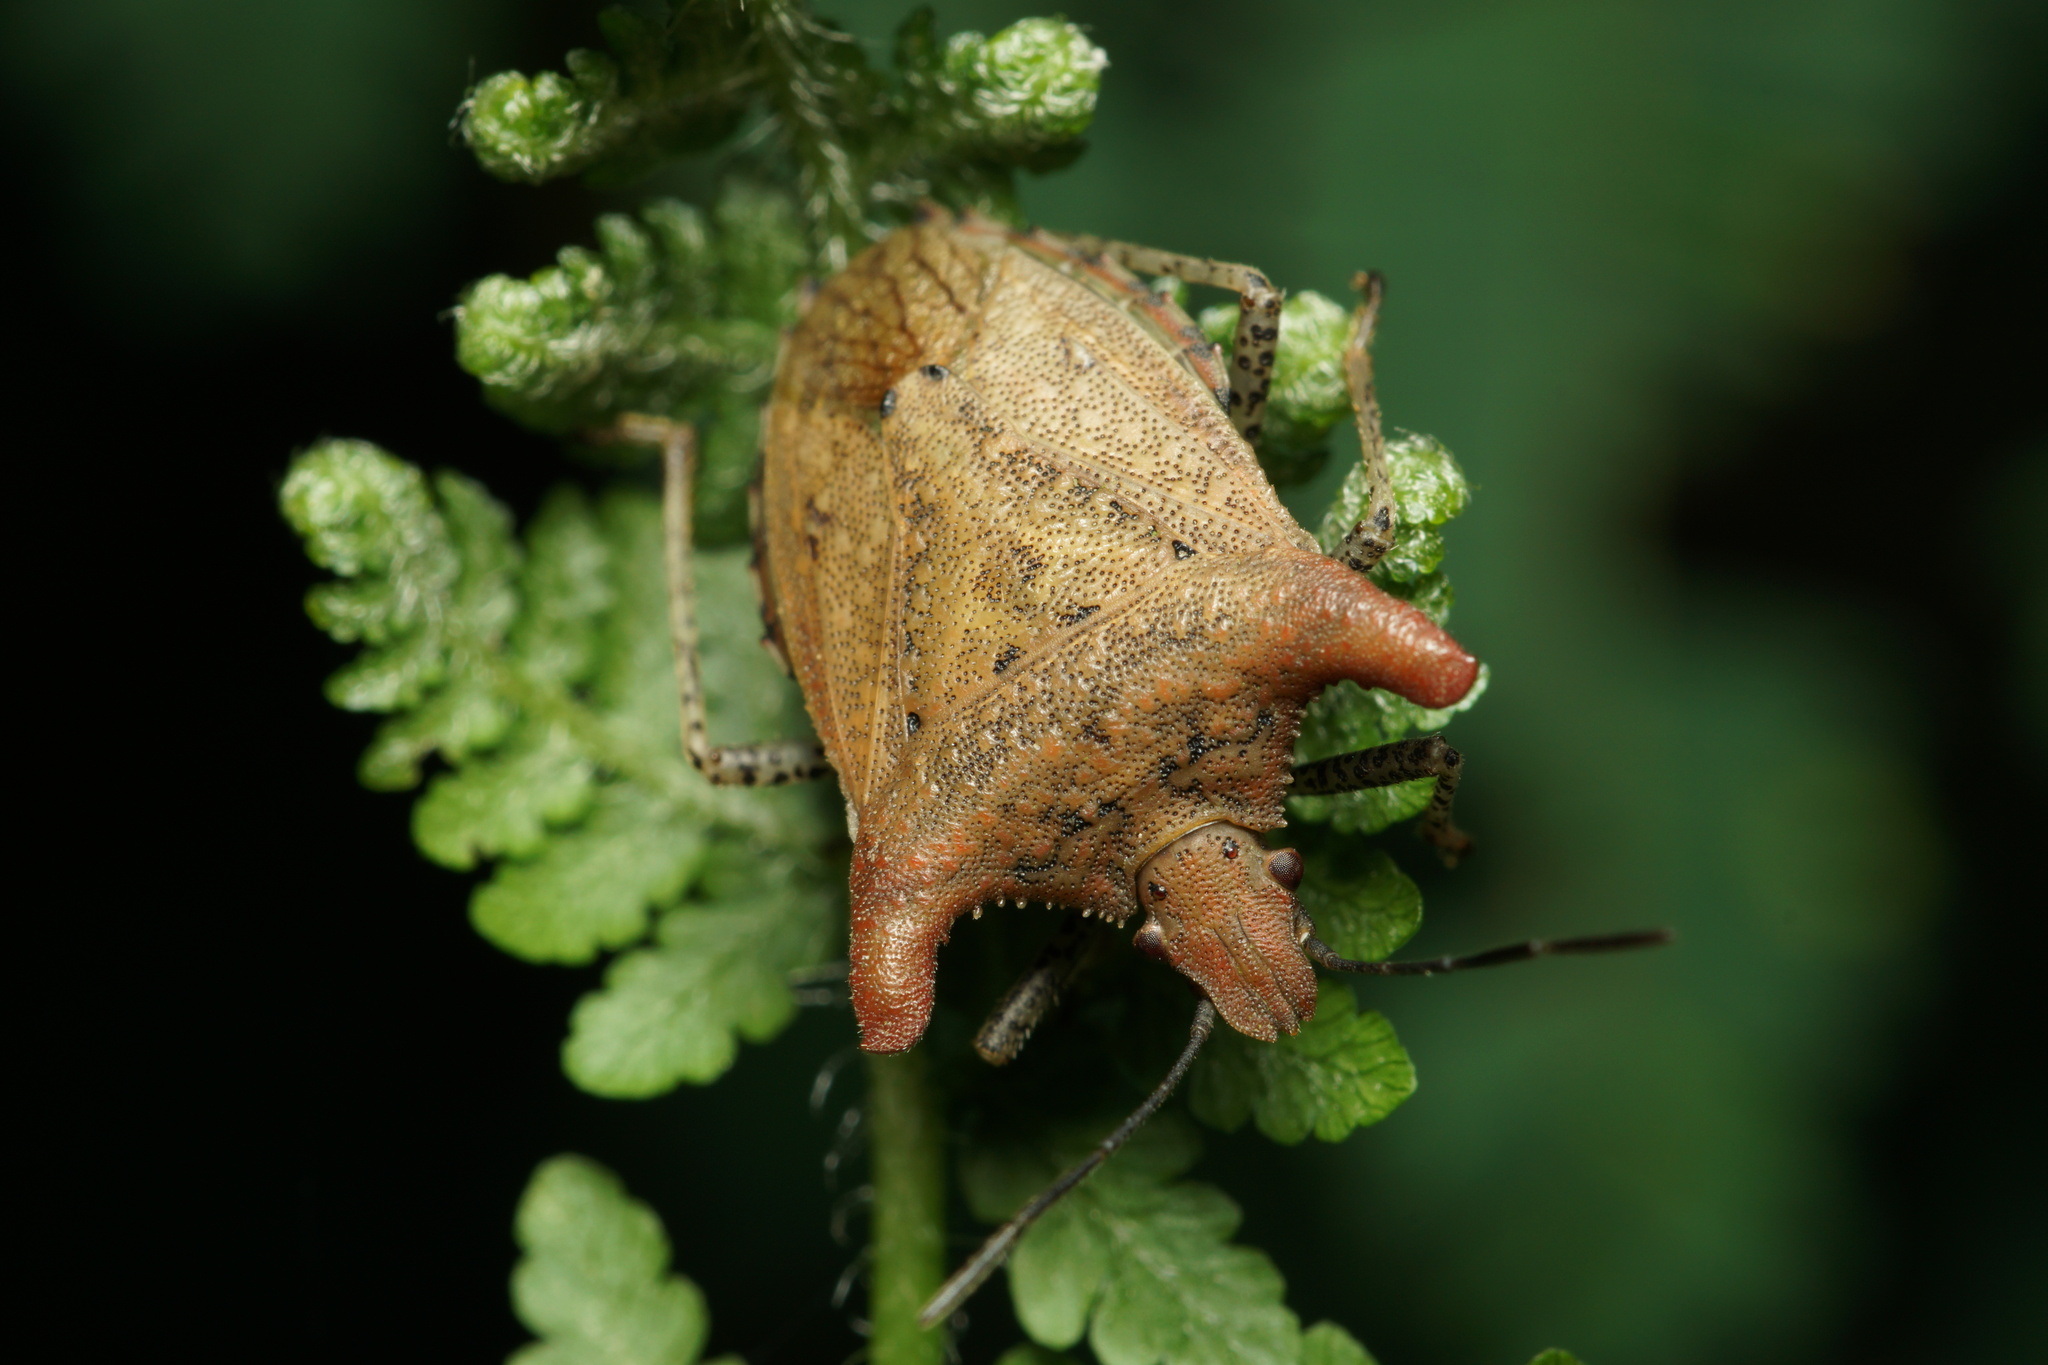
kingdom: Animalia
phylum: Arthropoda
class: Insecta
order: Hemiptera
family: Pentatomidae
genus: Euschistus
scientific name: Euschistus cornutus
